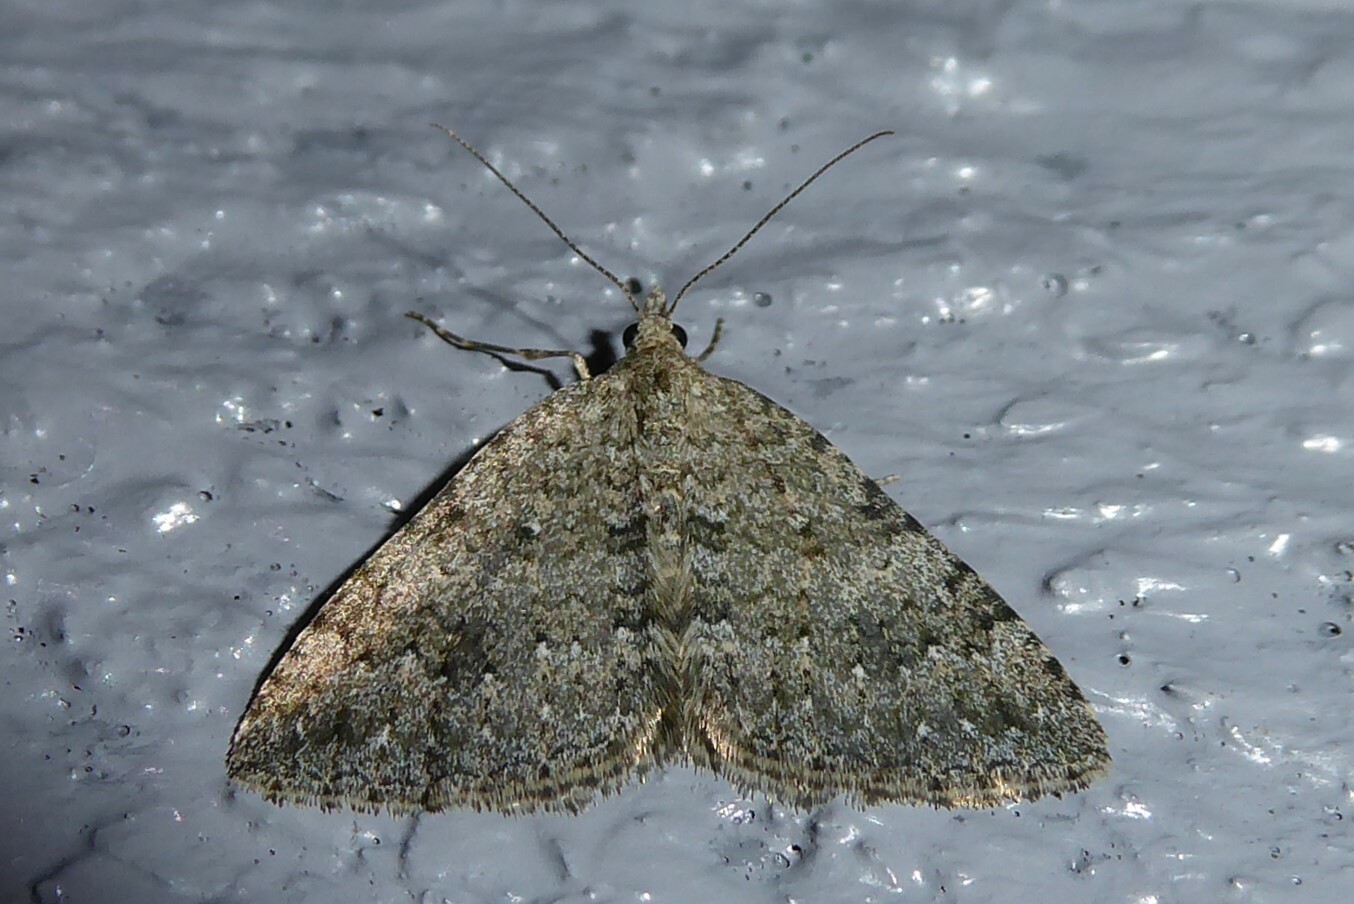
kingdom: Animalia
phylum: Arthropoda
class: Insecta
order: Lepidoptera
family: Geometridae
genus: Helastia
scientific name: Helastia corcularia
